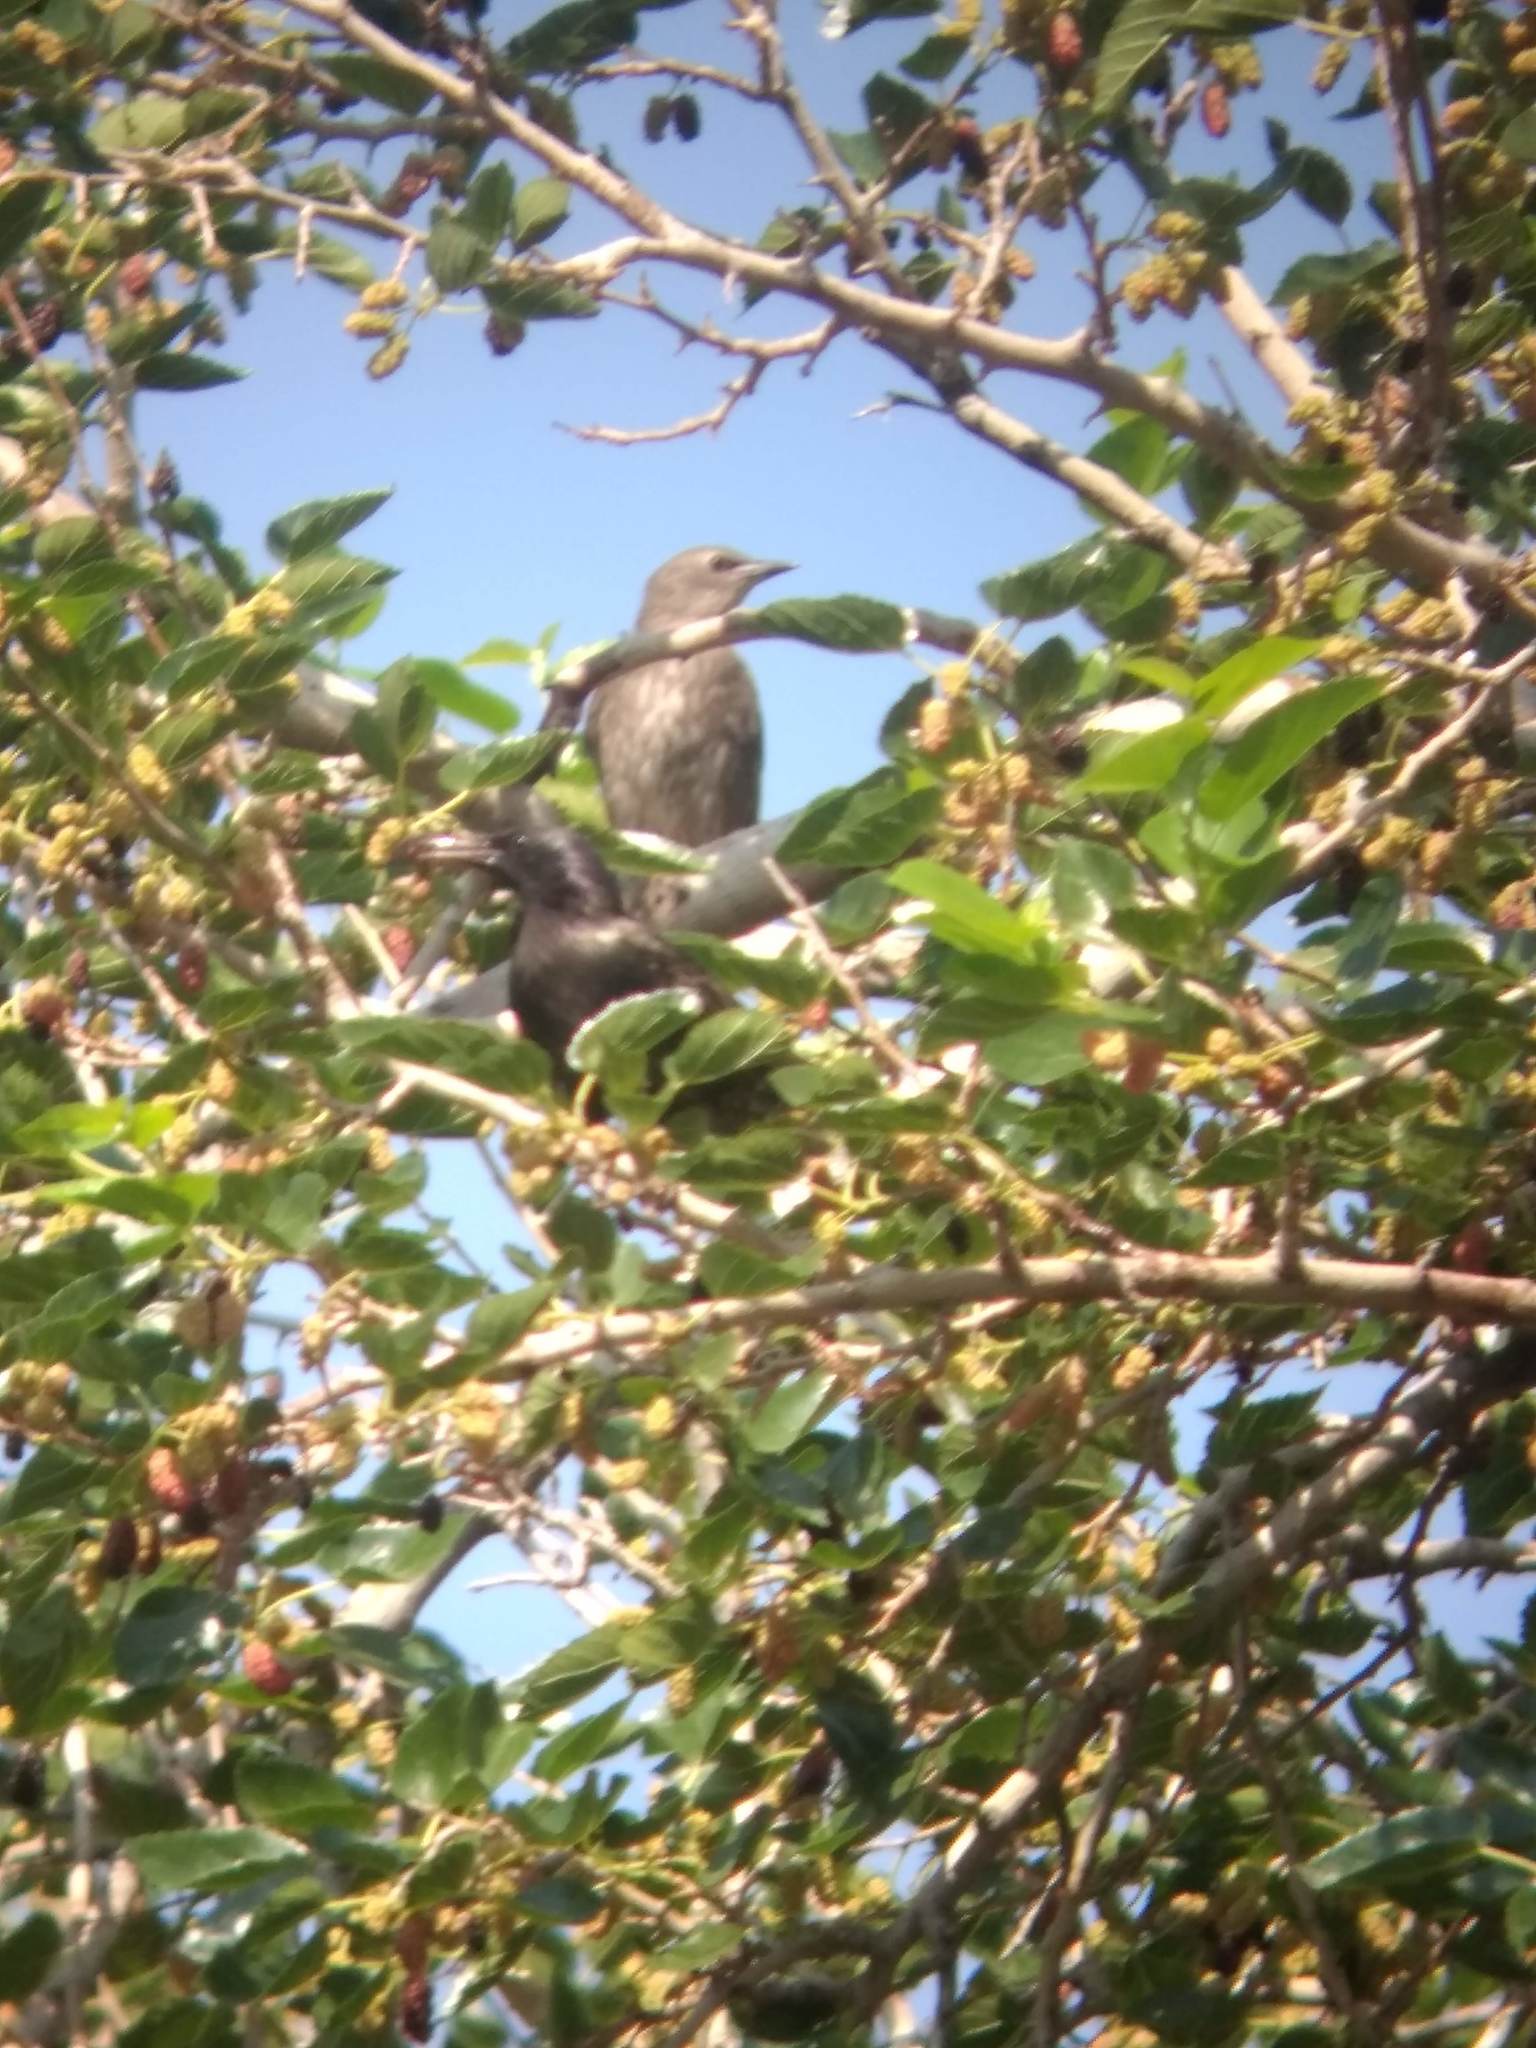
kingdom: Animalia
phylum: Chordata
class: Aves
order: Passeriformes
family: Sturnidae
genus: Sturnus
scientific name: Sturnus vulgaris
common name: Common starling
